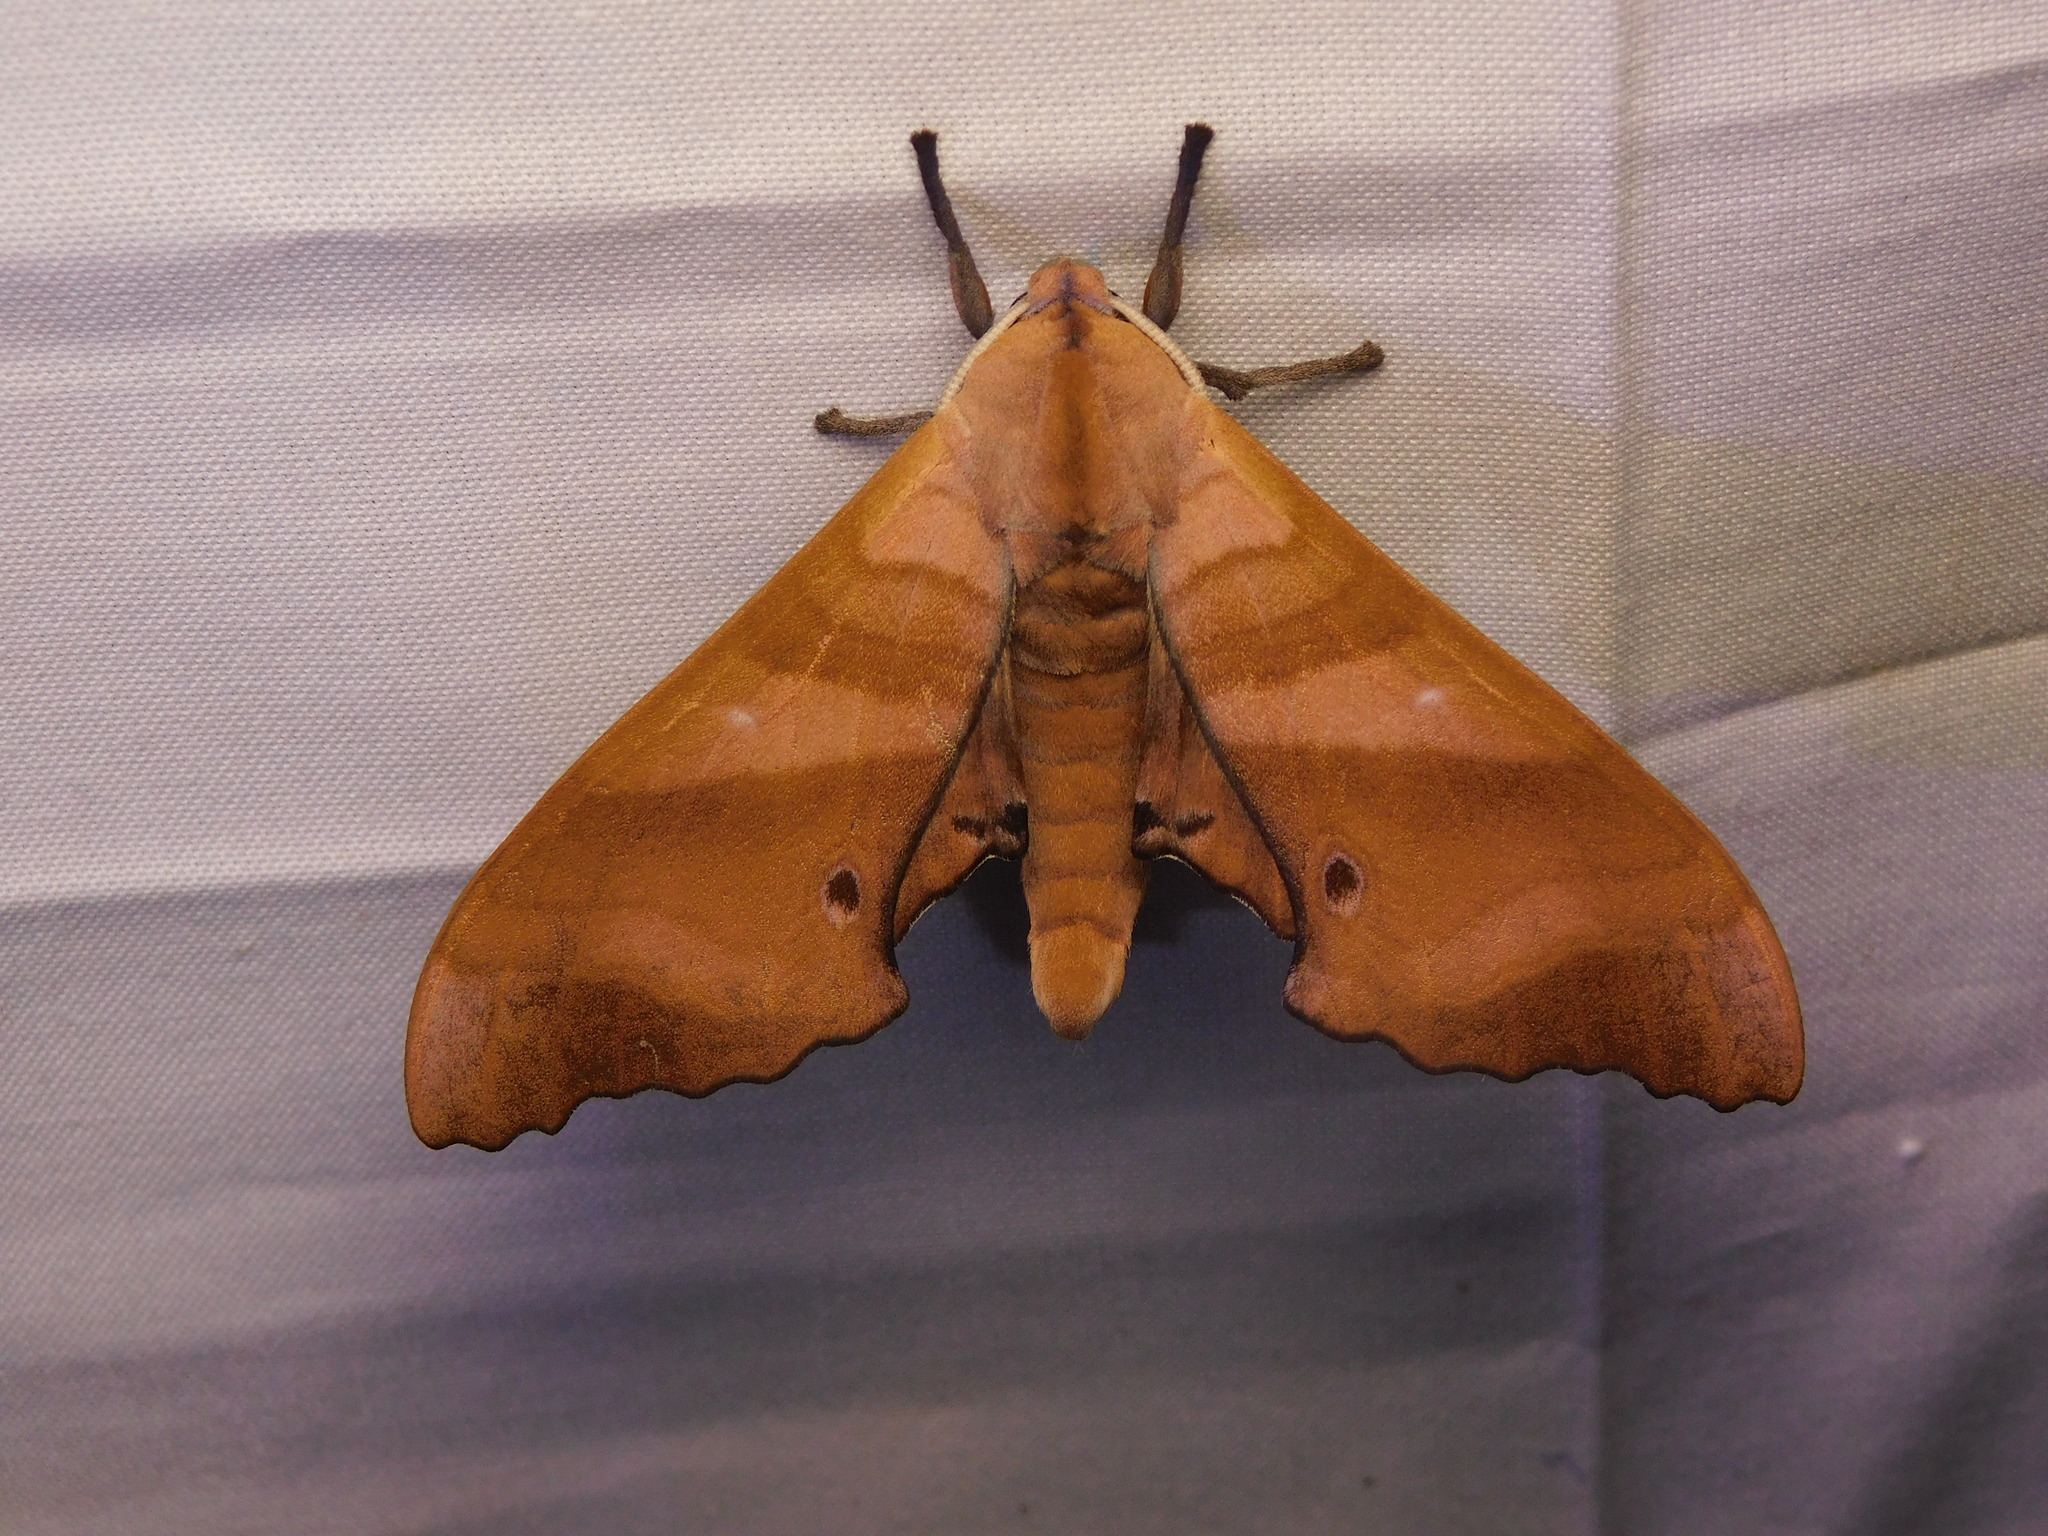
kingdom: Animalia
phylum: Arthropoda
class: Insecta
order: Lepidoptera
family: Sphingidae
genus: Marumba
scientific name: Marumba nympha
